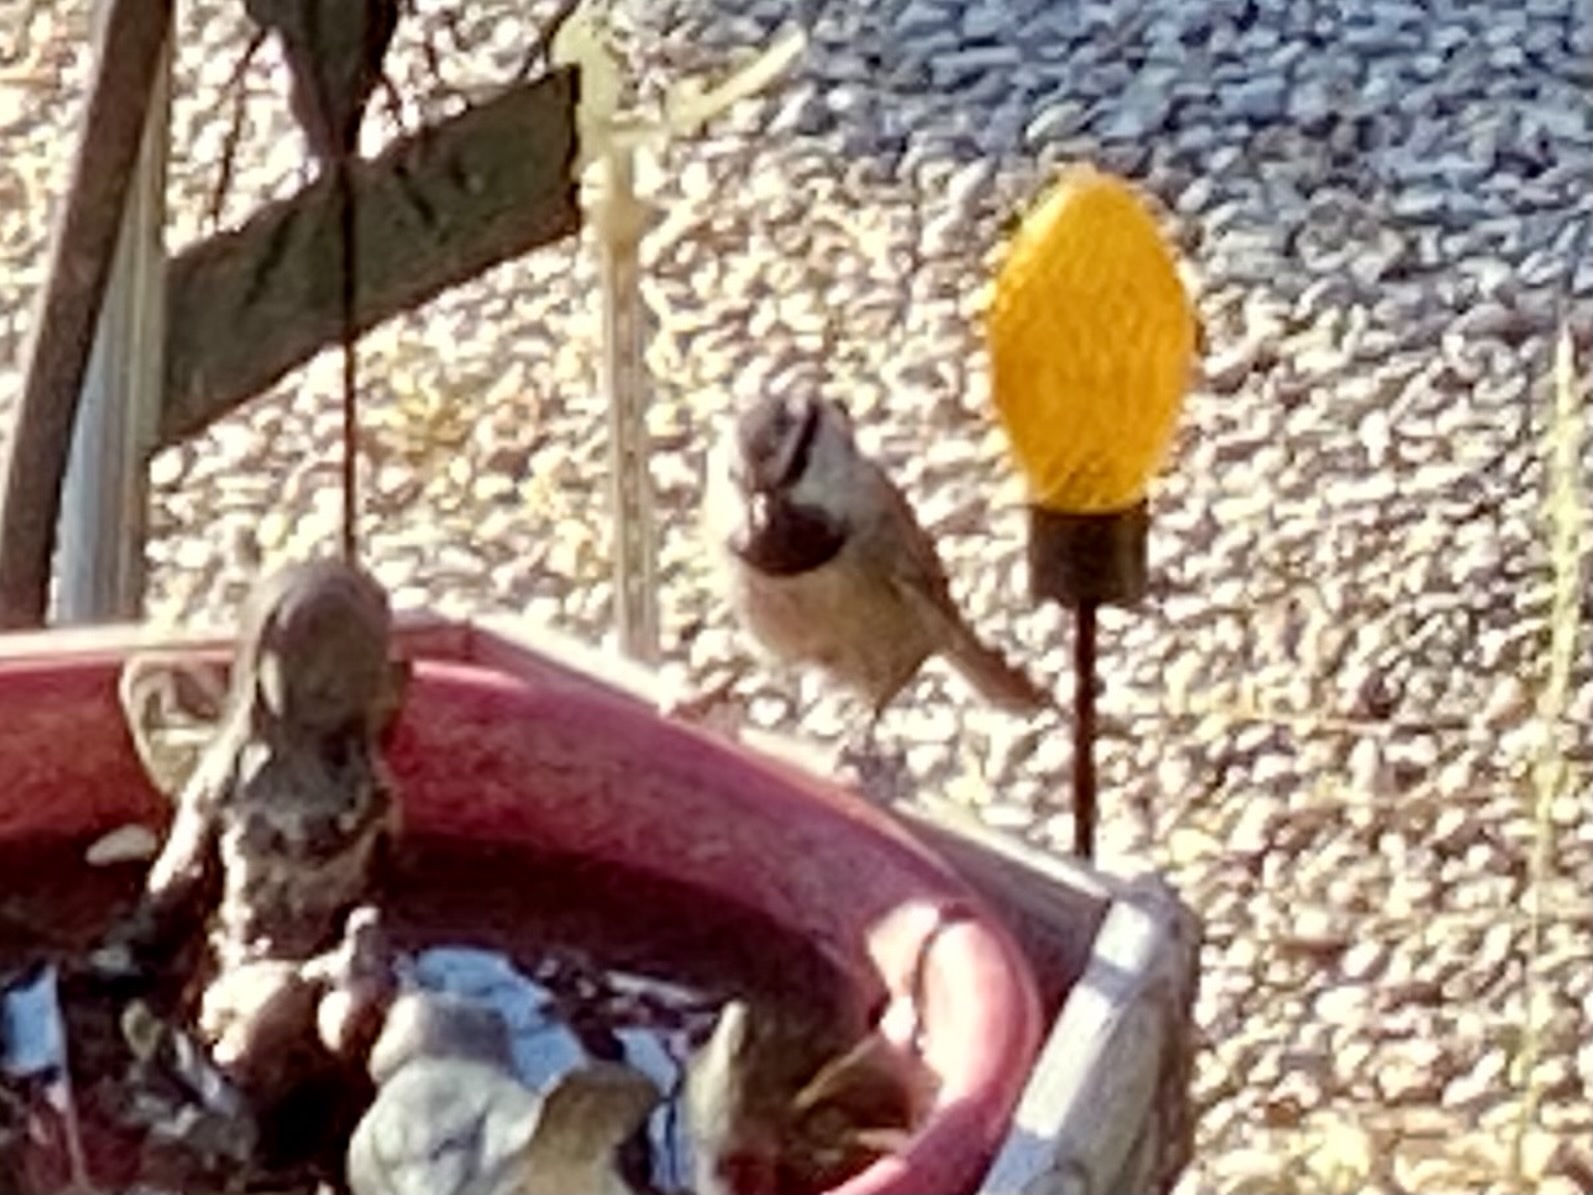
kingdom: Animalia
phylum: Chordata
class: Aves
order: Passeriformes
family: Paridae
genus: Poecile
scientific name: Poecile gambeli
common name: Mountain chickadee
